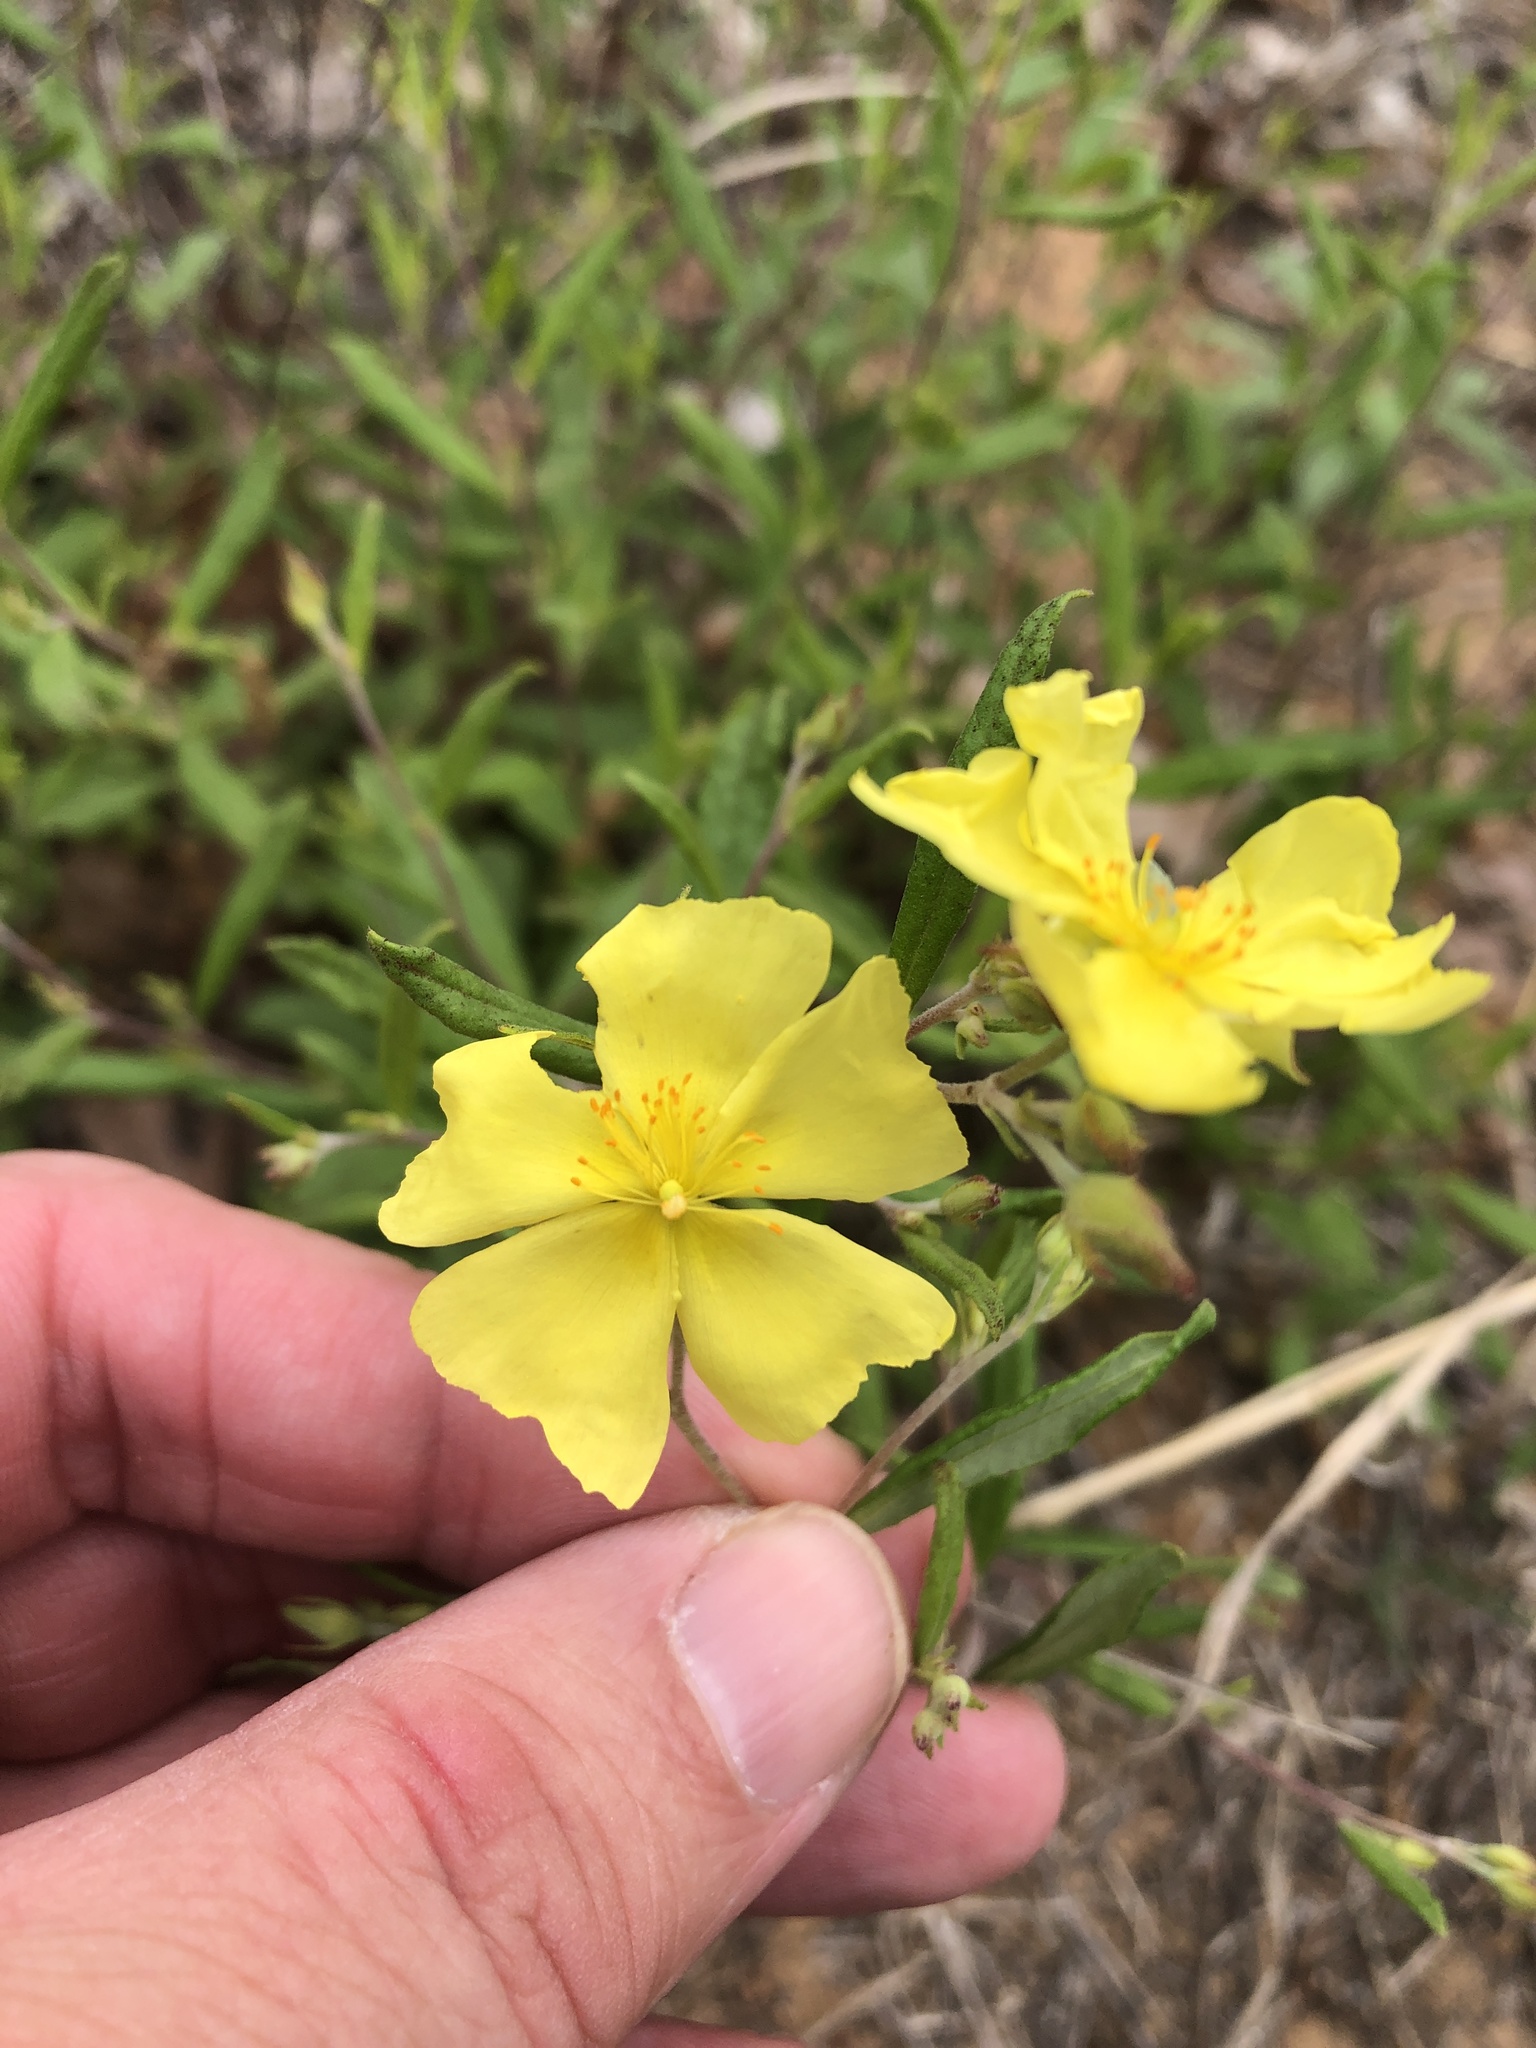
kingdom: Plantae
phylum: Tracheophyta
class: Magnoliopsida
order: Malvales
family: Cistaceae
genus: Crocanthemum
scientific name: Crocanthemum georgianum
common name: Georgia frostweed
